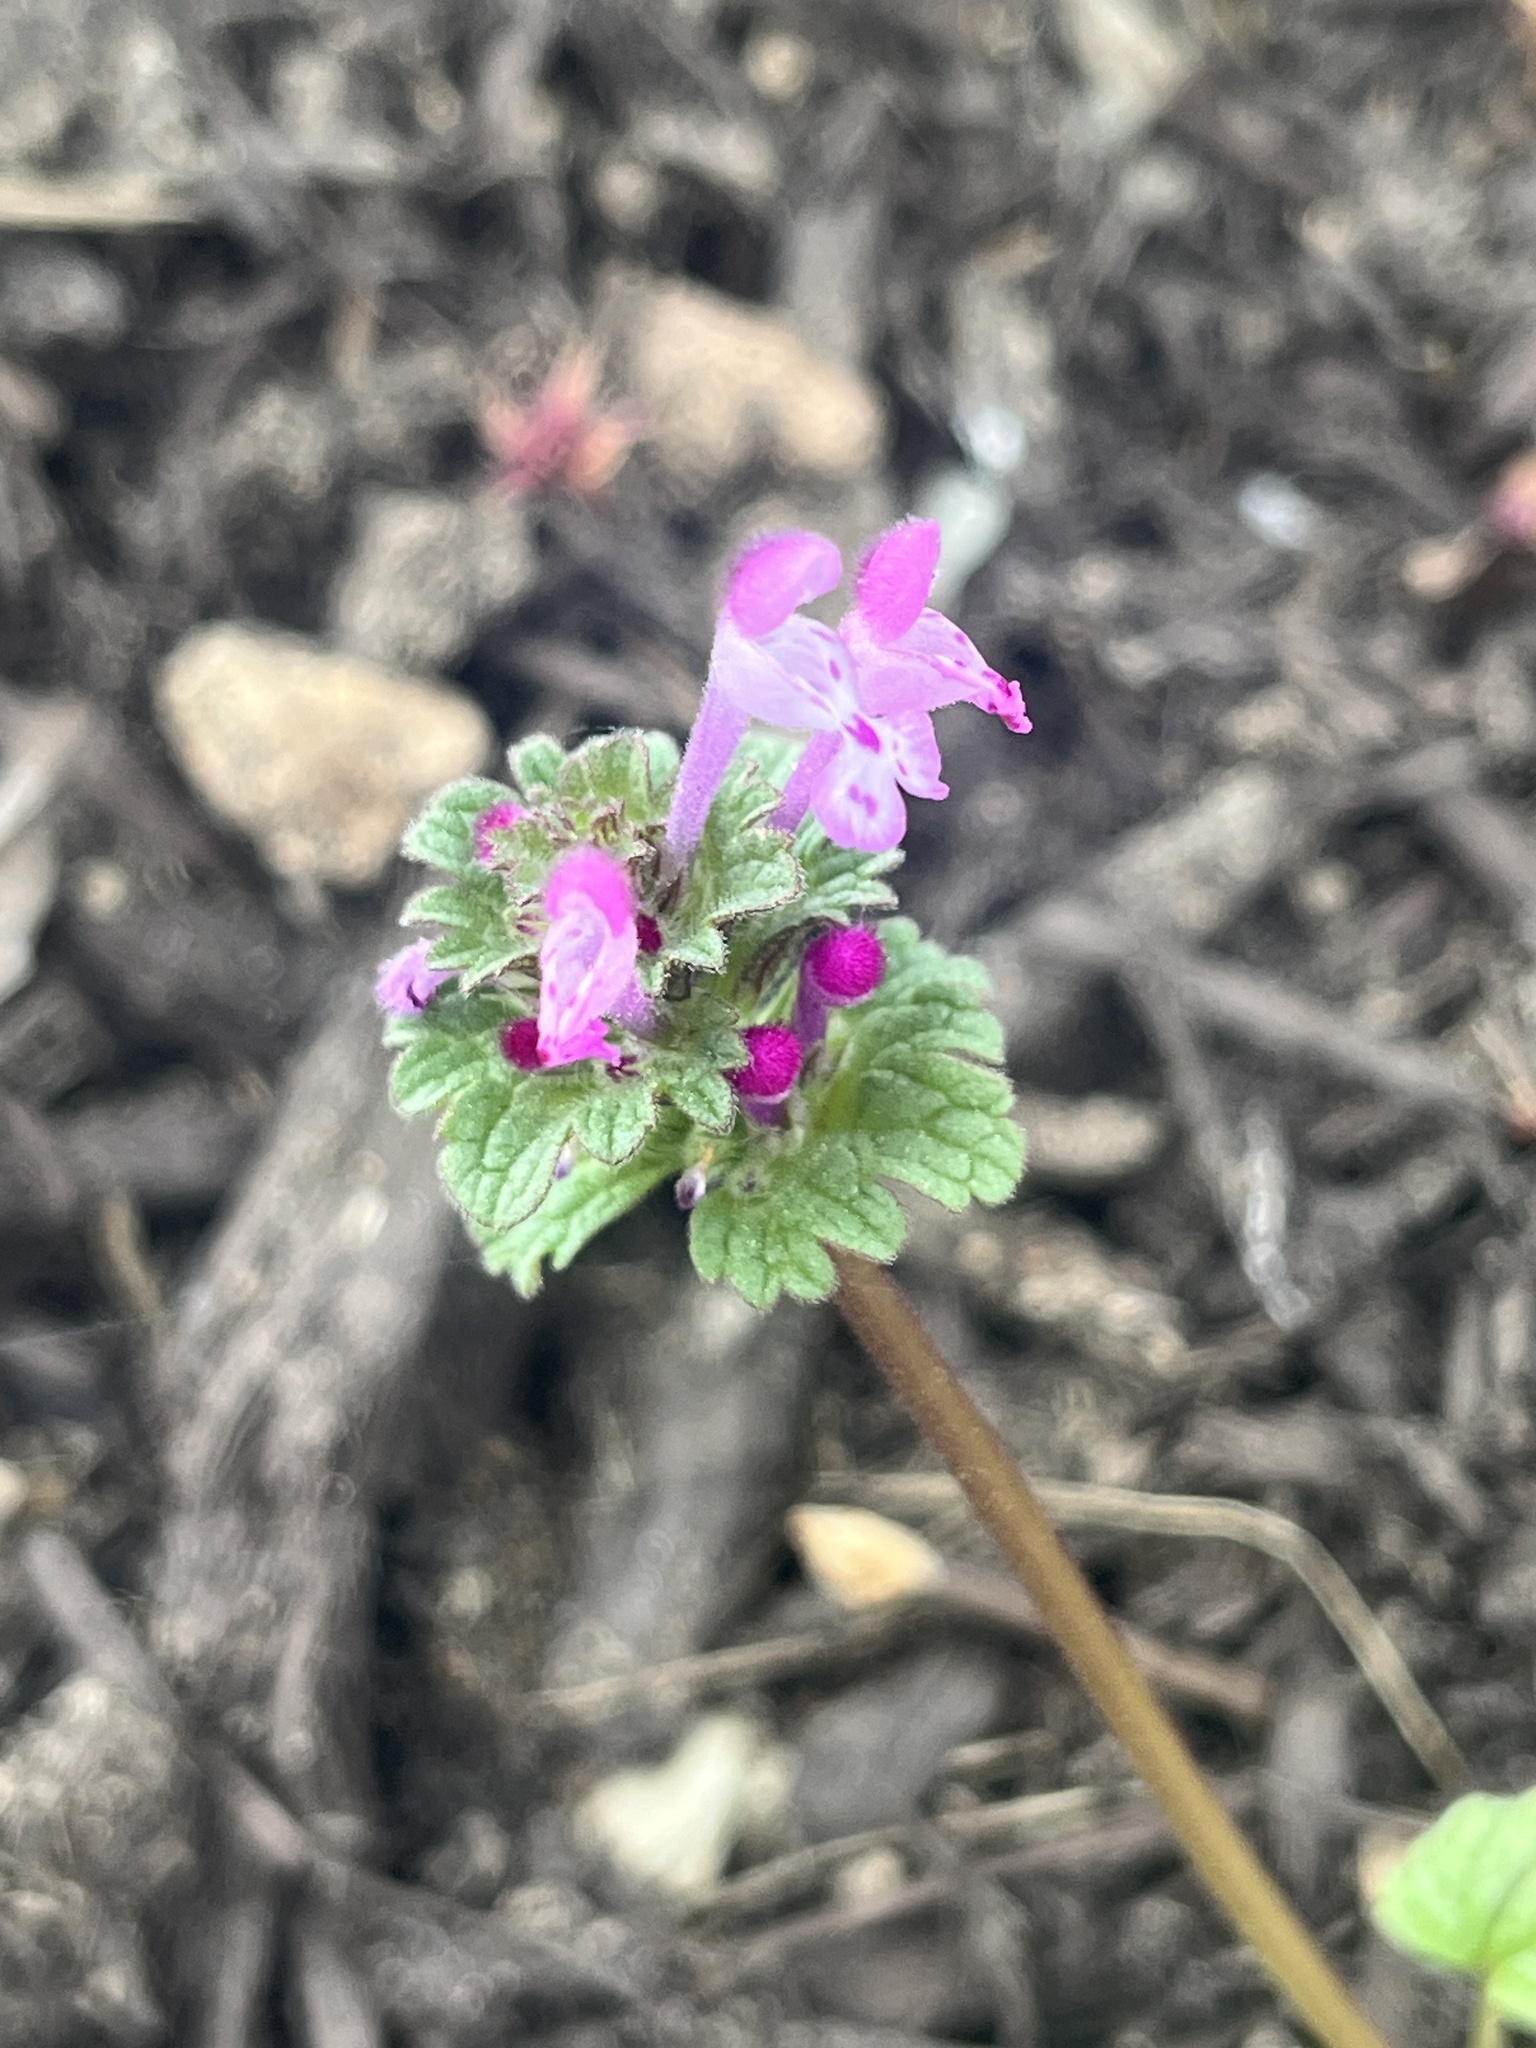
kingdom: Plantae
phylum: Tracheophyta
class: Magnoliopsida
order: Lamiales
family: Lamiaceae
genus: Lamium
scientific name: Lamium amplexicaule
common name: Henbit dead-nettle
